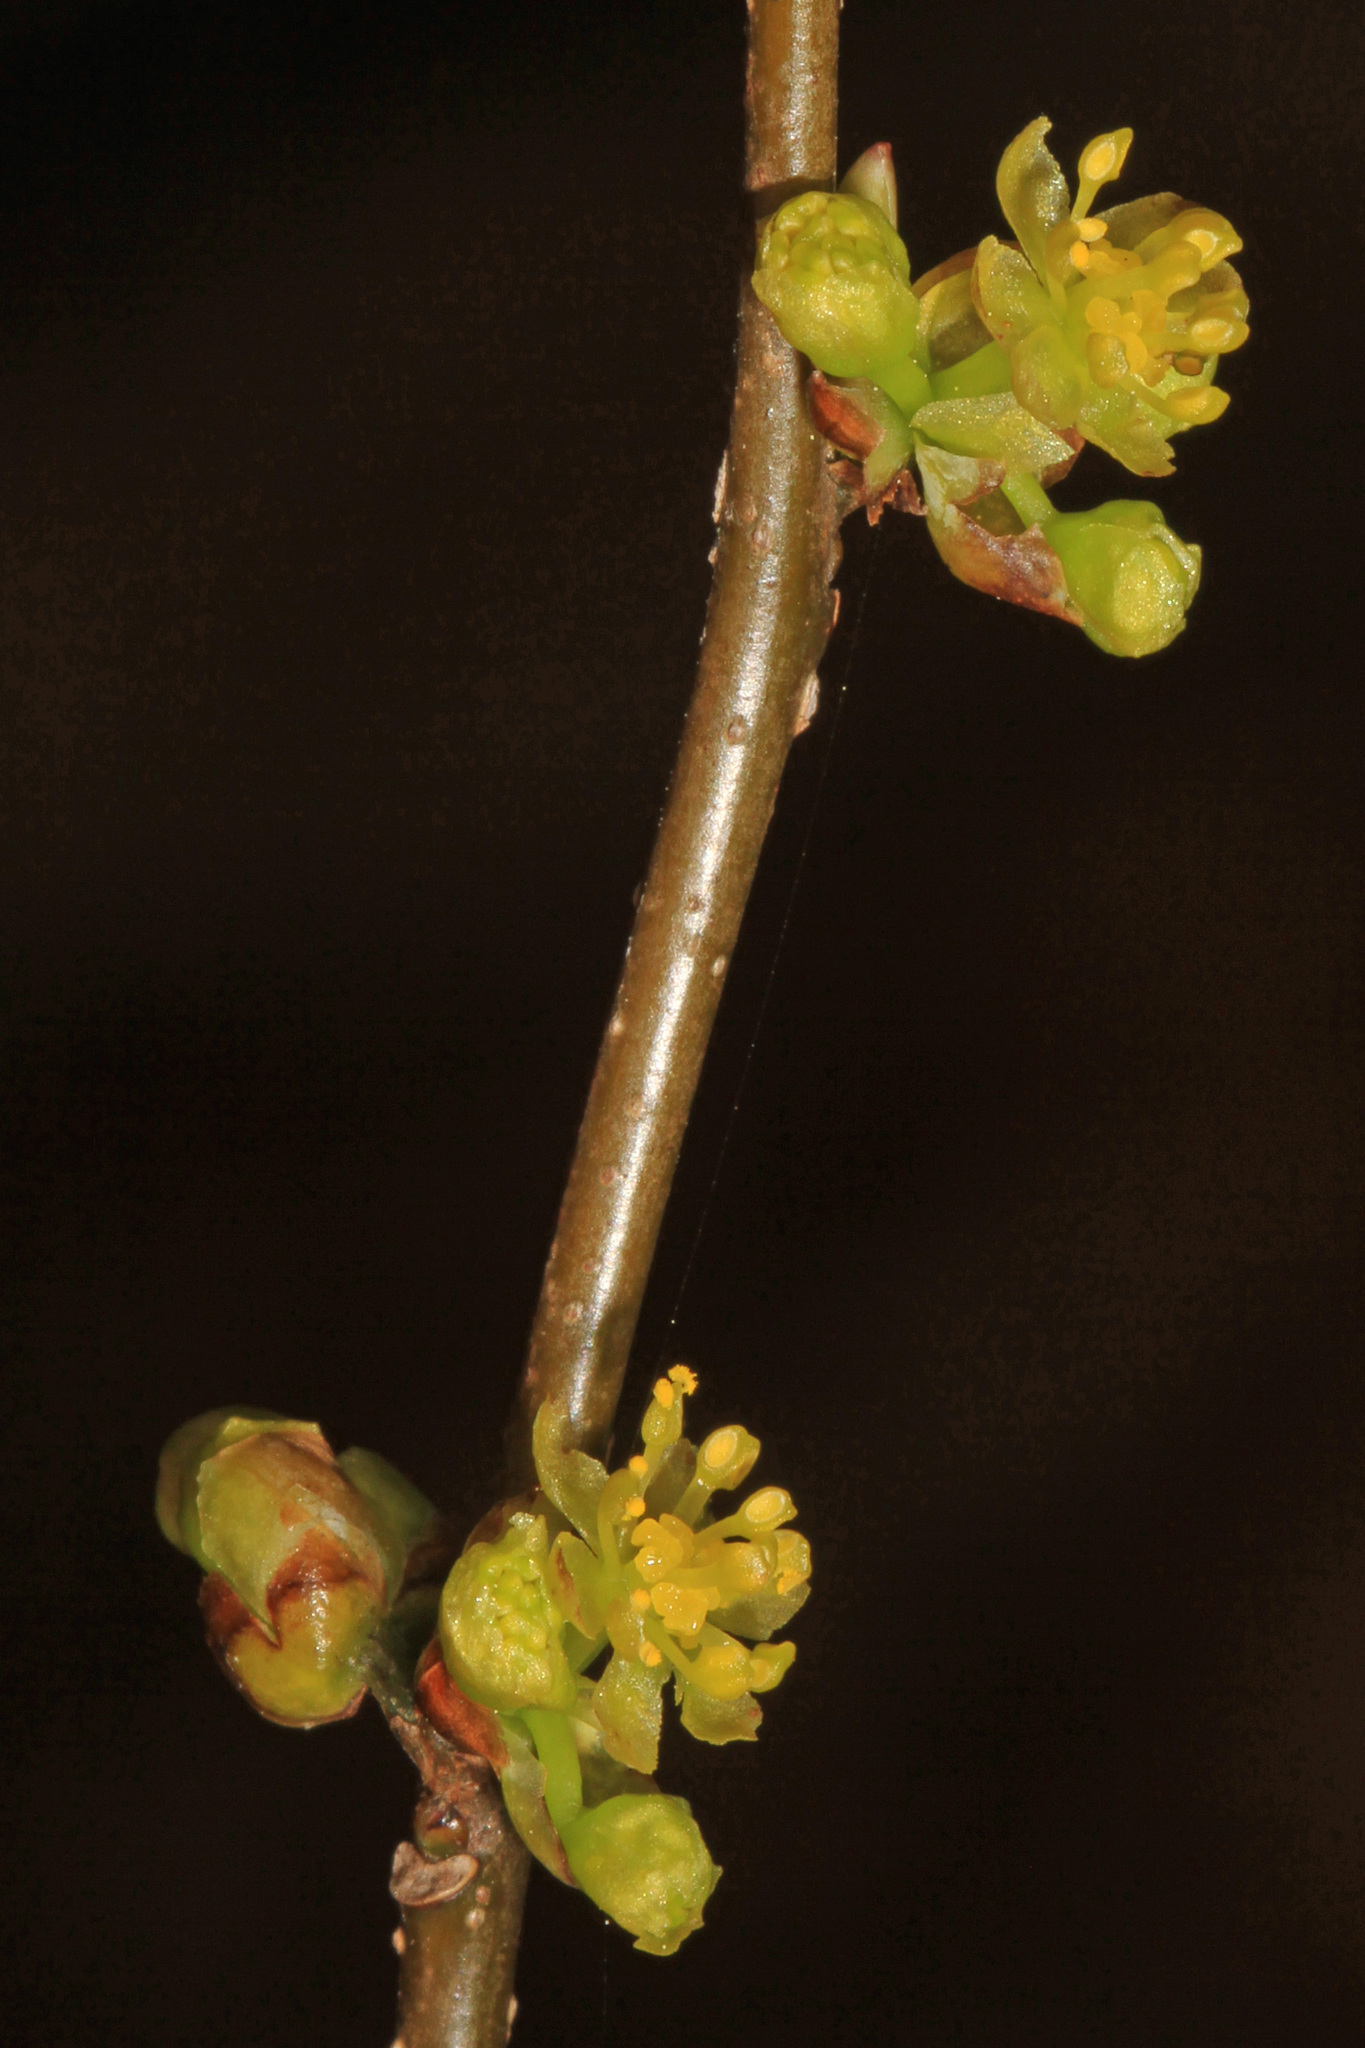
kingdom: Plantae
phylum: Tracheophyta
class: Magnoliopsida
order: Laurales
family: Lauraceae
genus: Lindera
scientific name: Lindera benzoin
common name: Spicebush
